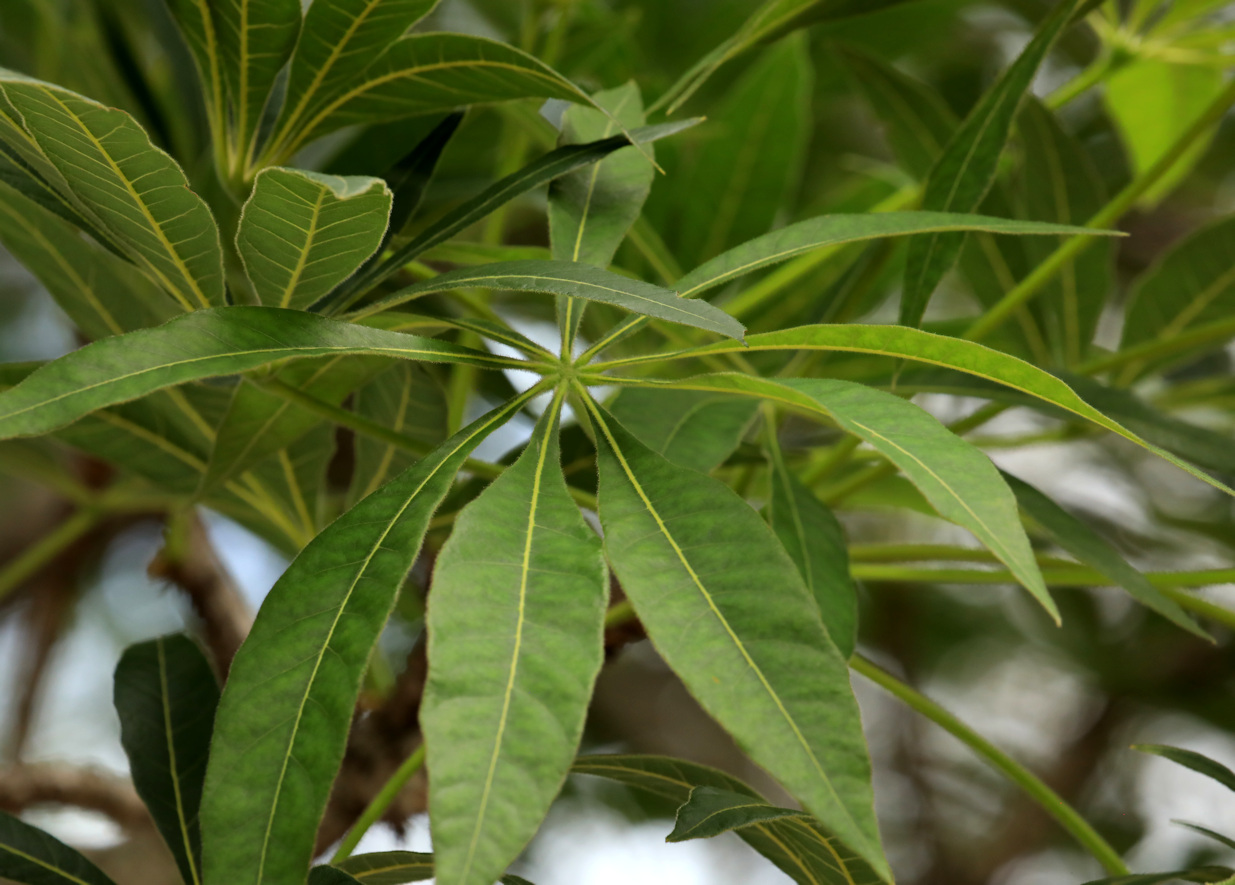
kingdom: Plantae
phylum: Tracheophyta
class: Magnoliopsida
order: Malvales
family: Malvaceae
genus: Sterculia
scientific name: Sterculia murex
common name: Lowveld star-chestnut
